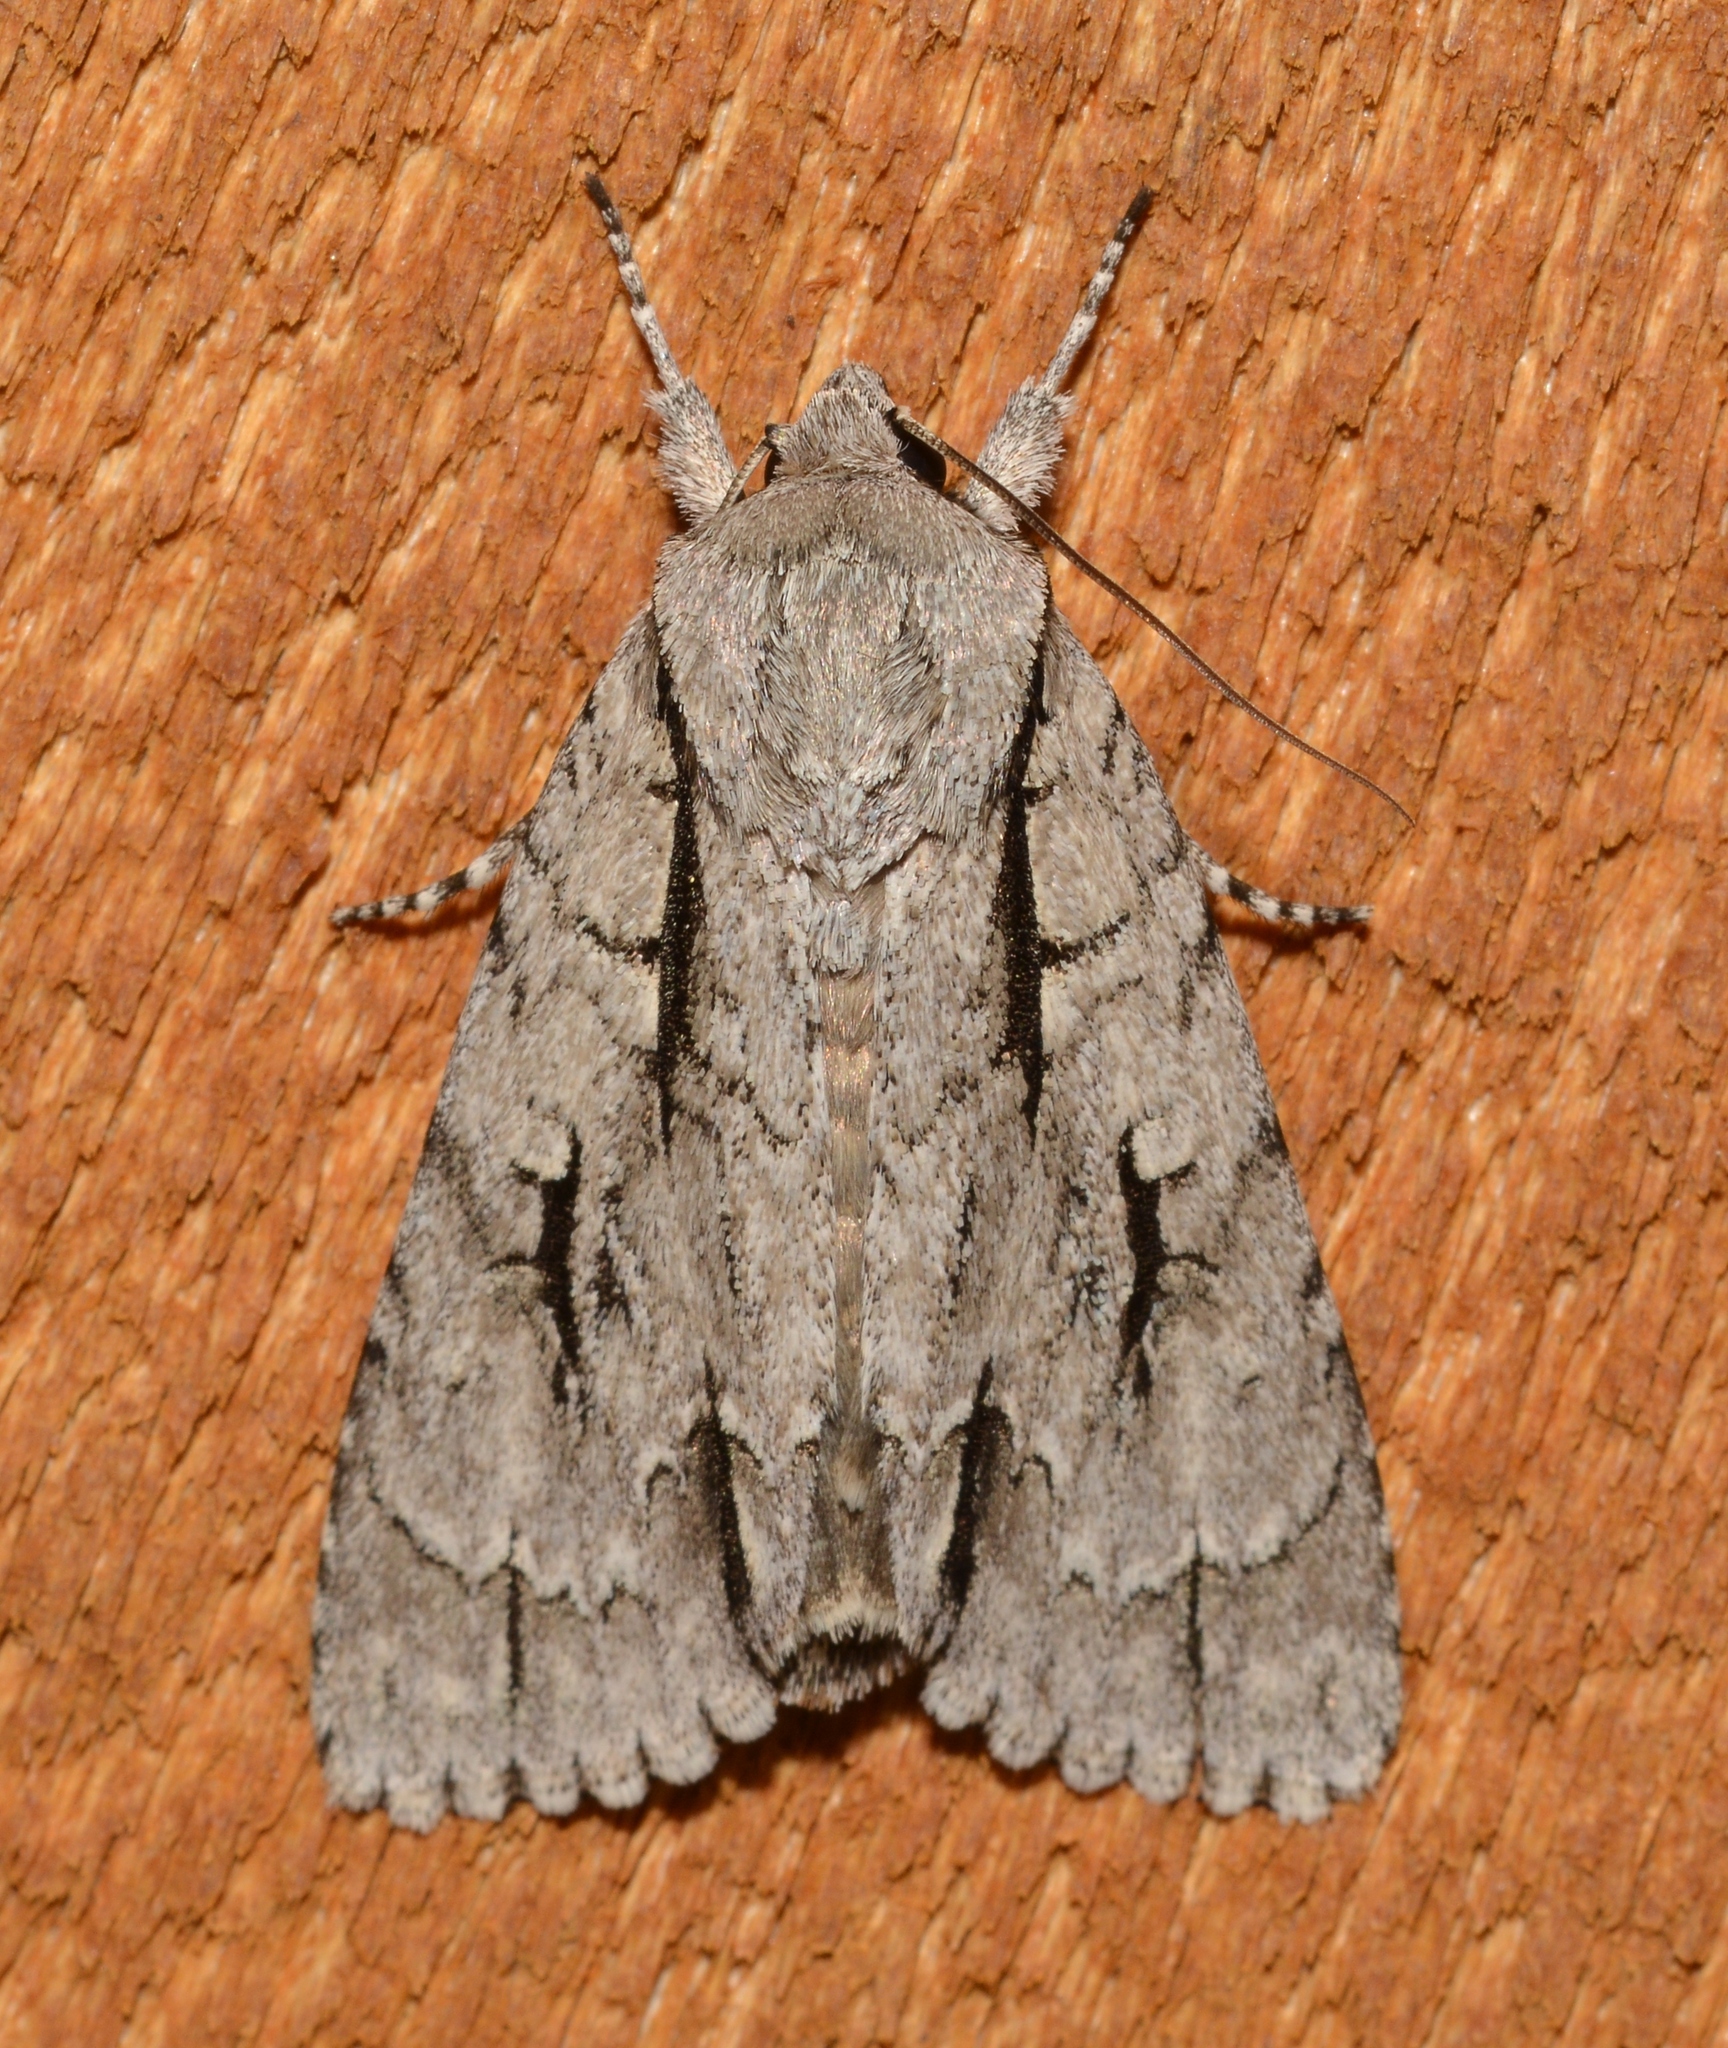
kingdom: Animalia
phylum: Arthropoda
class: Insecta
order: Lepidoptera
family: Noctuidae
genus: Acronicta
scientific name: Acronicta lobeliae
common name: Greater oak dagger
